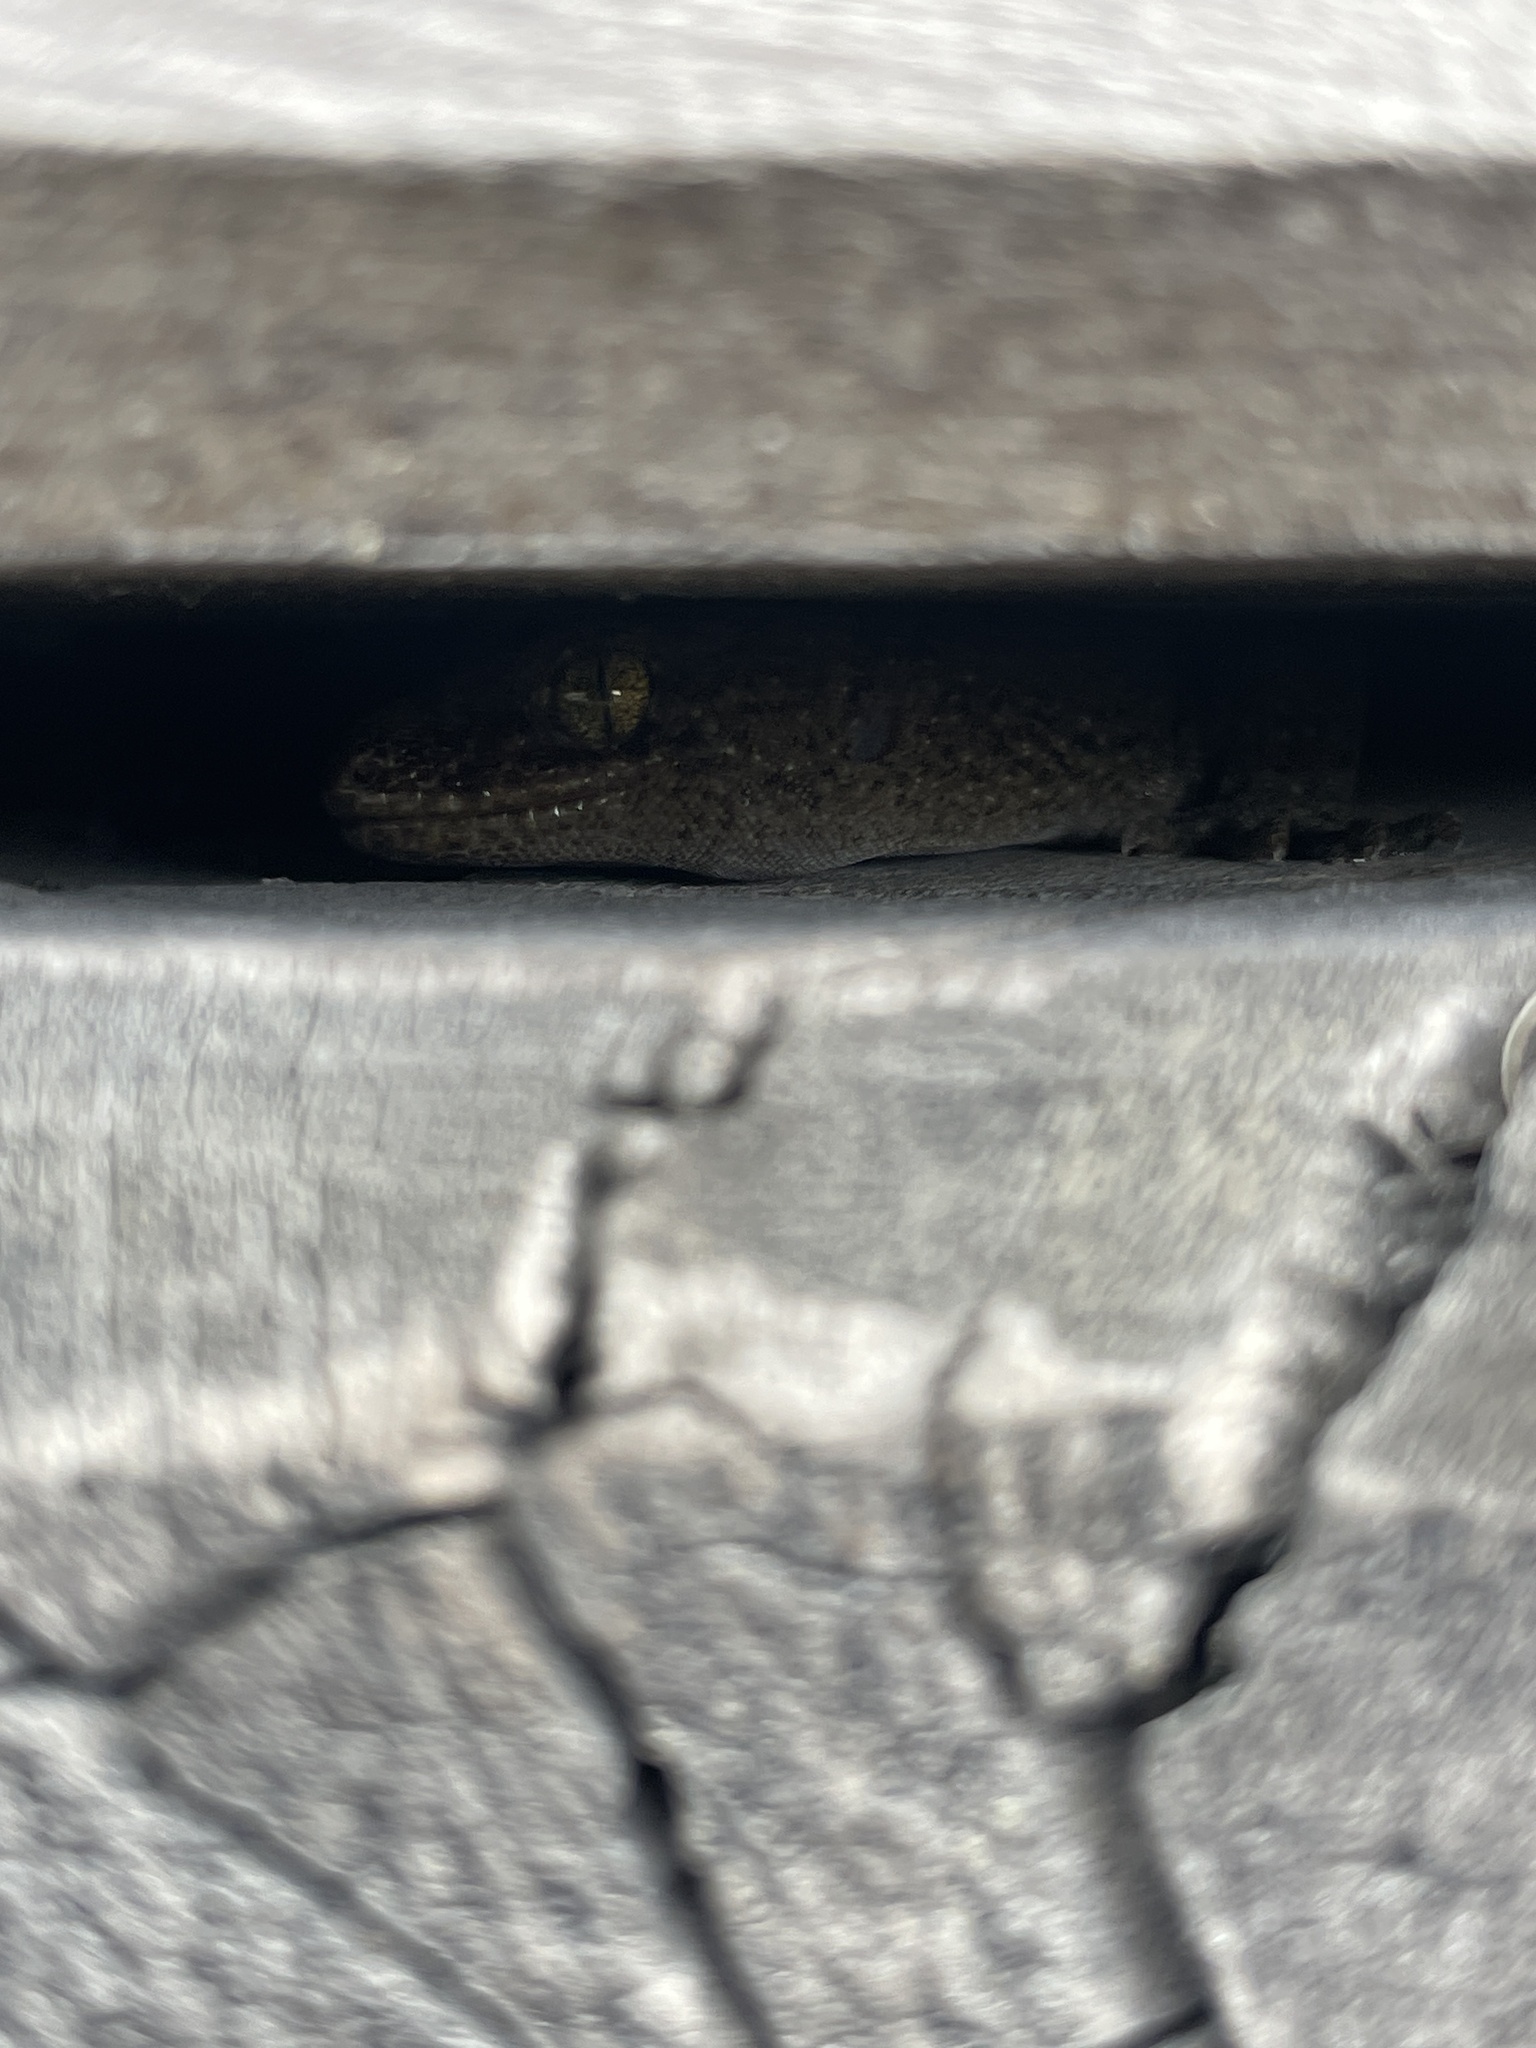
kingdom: Animalia
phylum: Chordata
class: Squamata
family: Diplodactylidae
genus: Woodworthia
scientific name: Woodworthia
